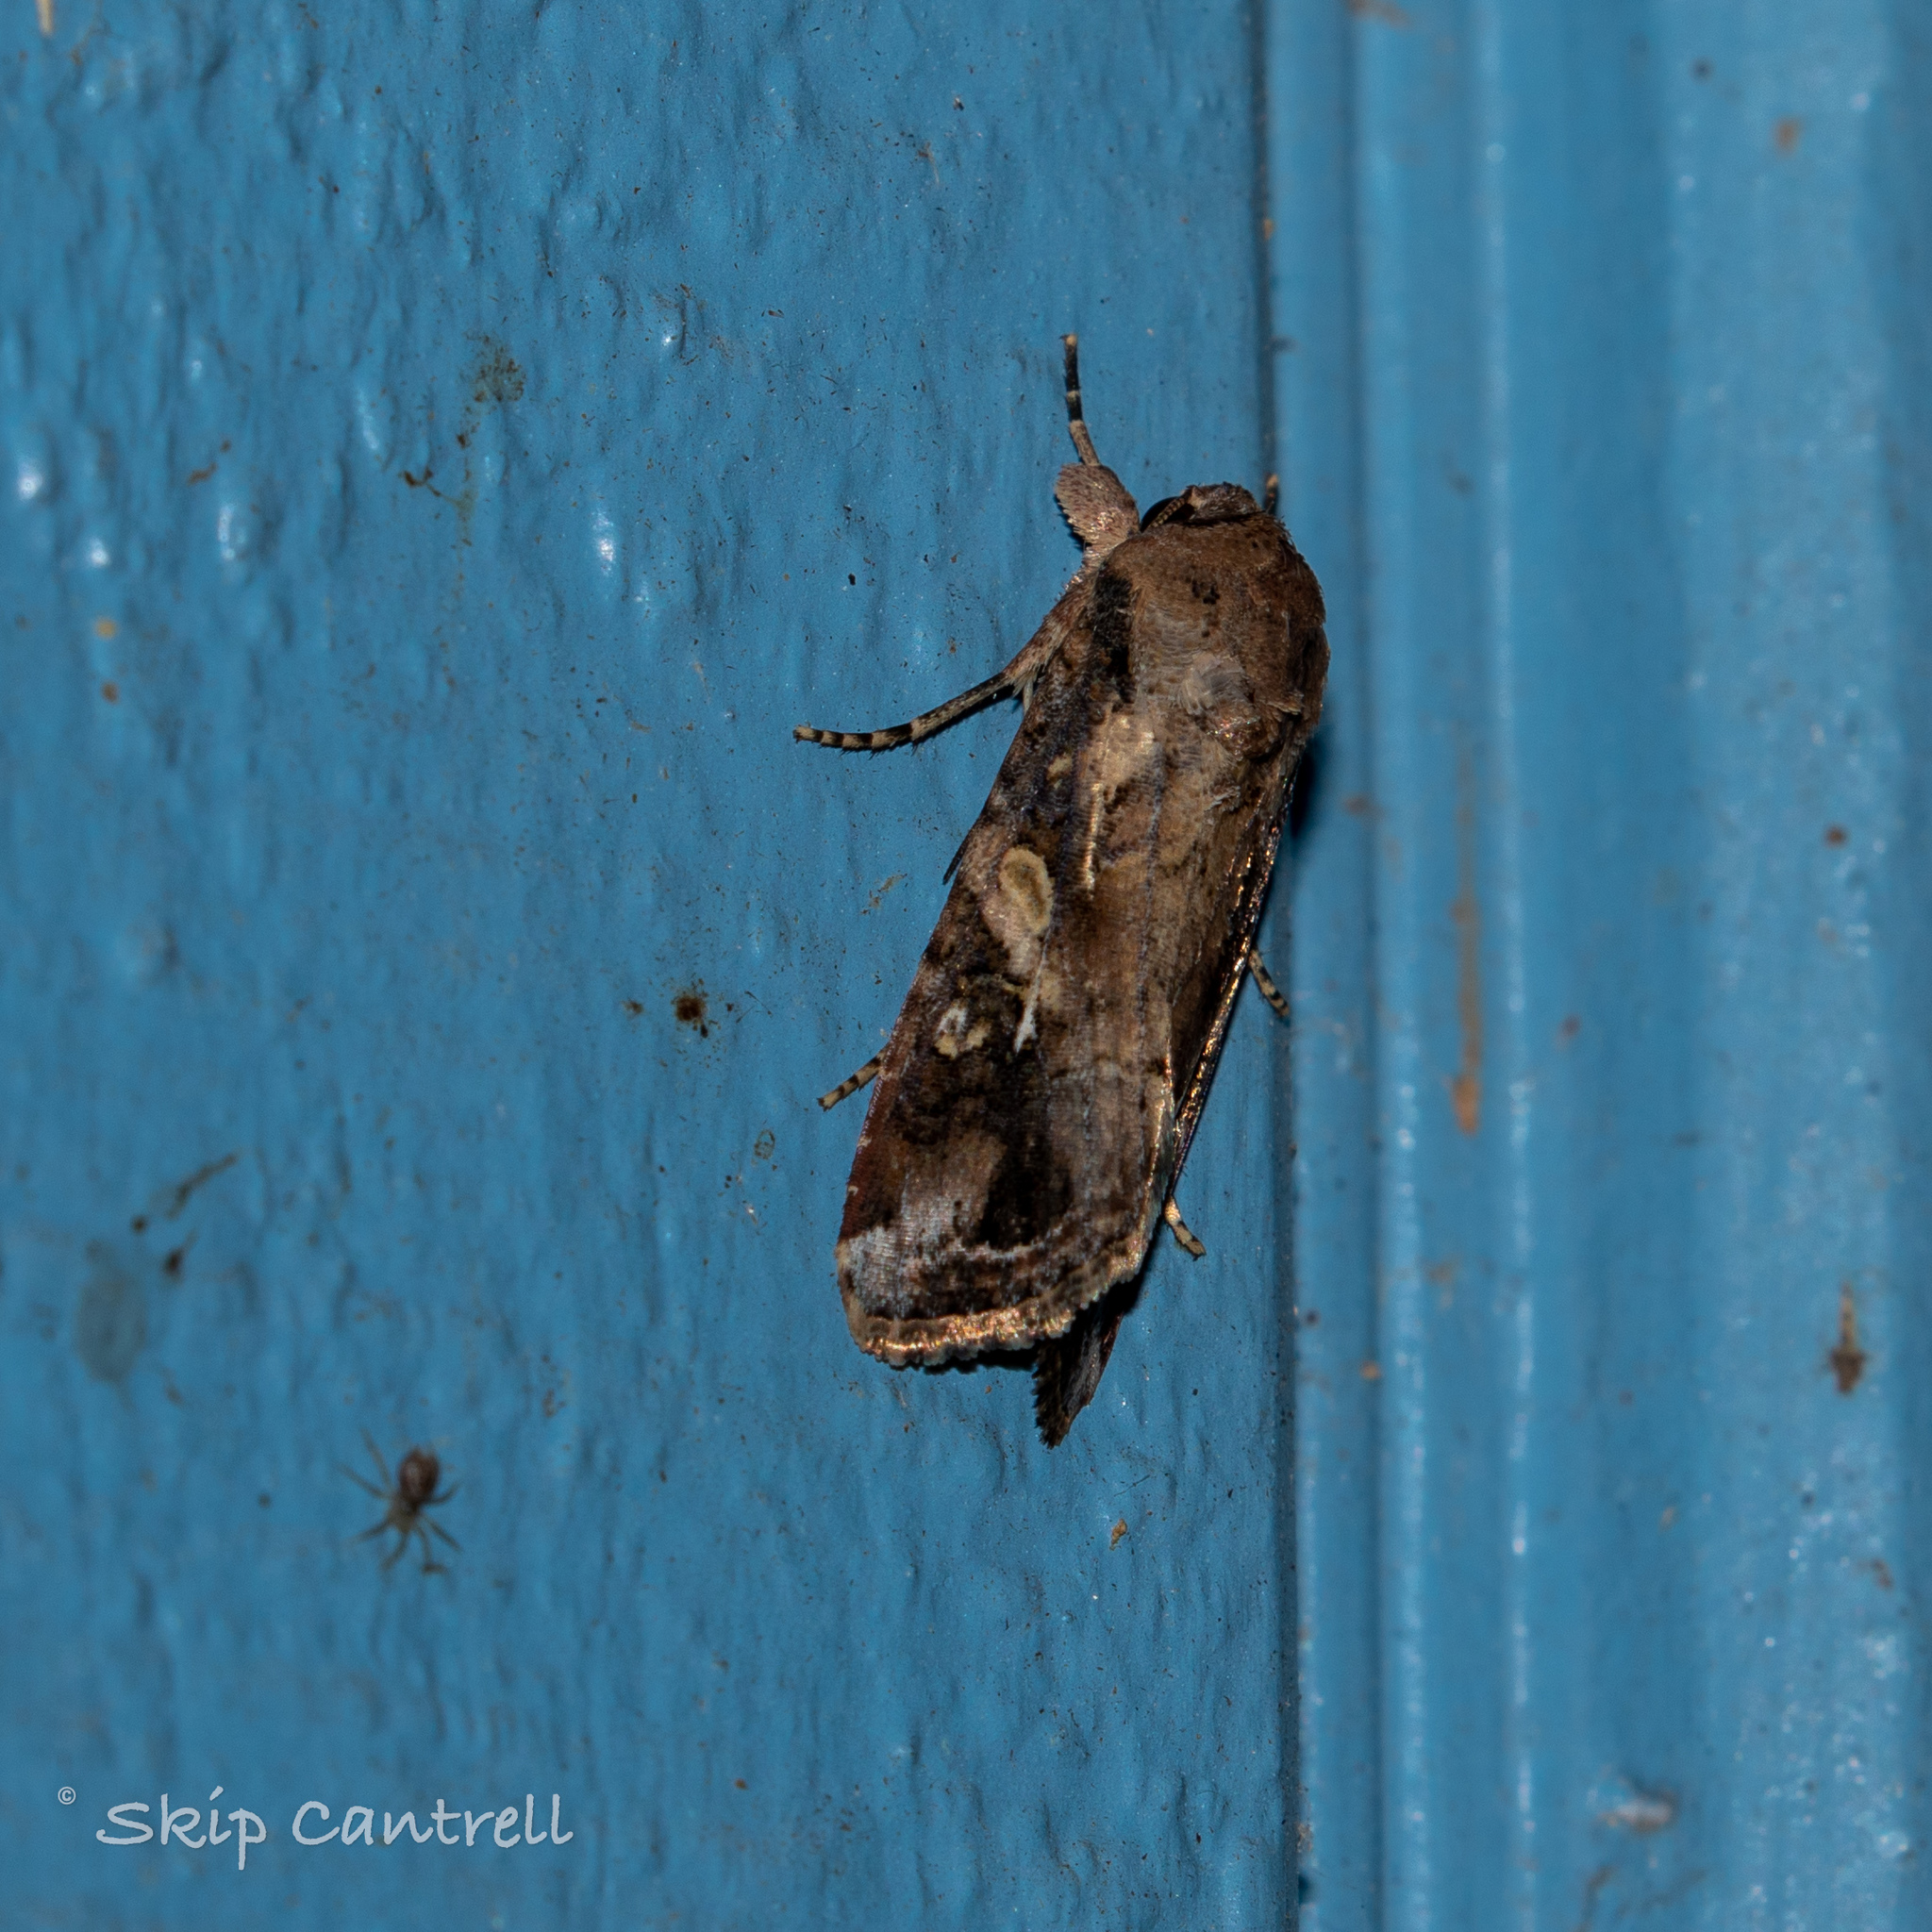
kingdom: Animalia
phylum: Arthropoda
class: Insecta
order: Lepidoptera
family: Noctuidae
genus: Spodoptera
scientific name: Spodoptera frugiperda
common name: Fall armyworm
